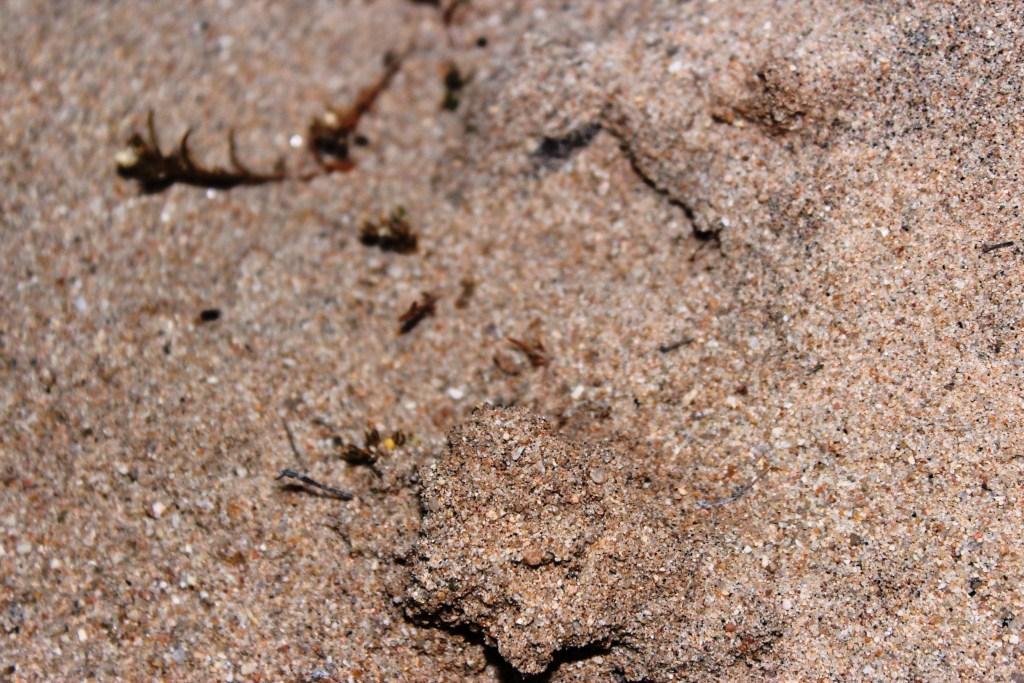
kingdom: Animalia
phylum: Chordata
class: Amphibia
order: Anura
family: Pyxicephalidae
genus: Tomopterna
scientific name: Tomopterna branchi
